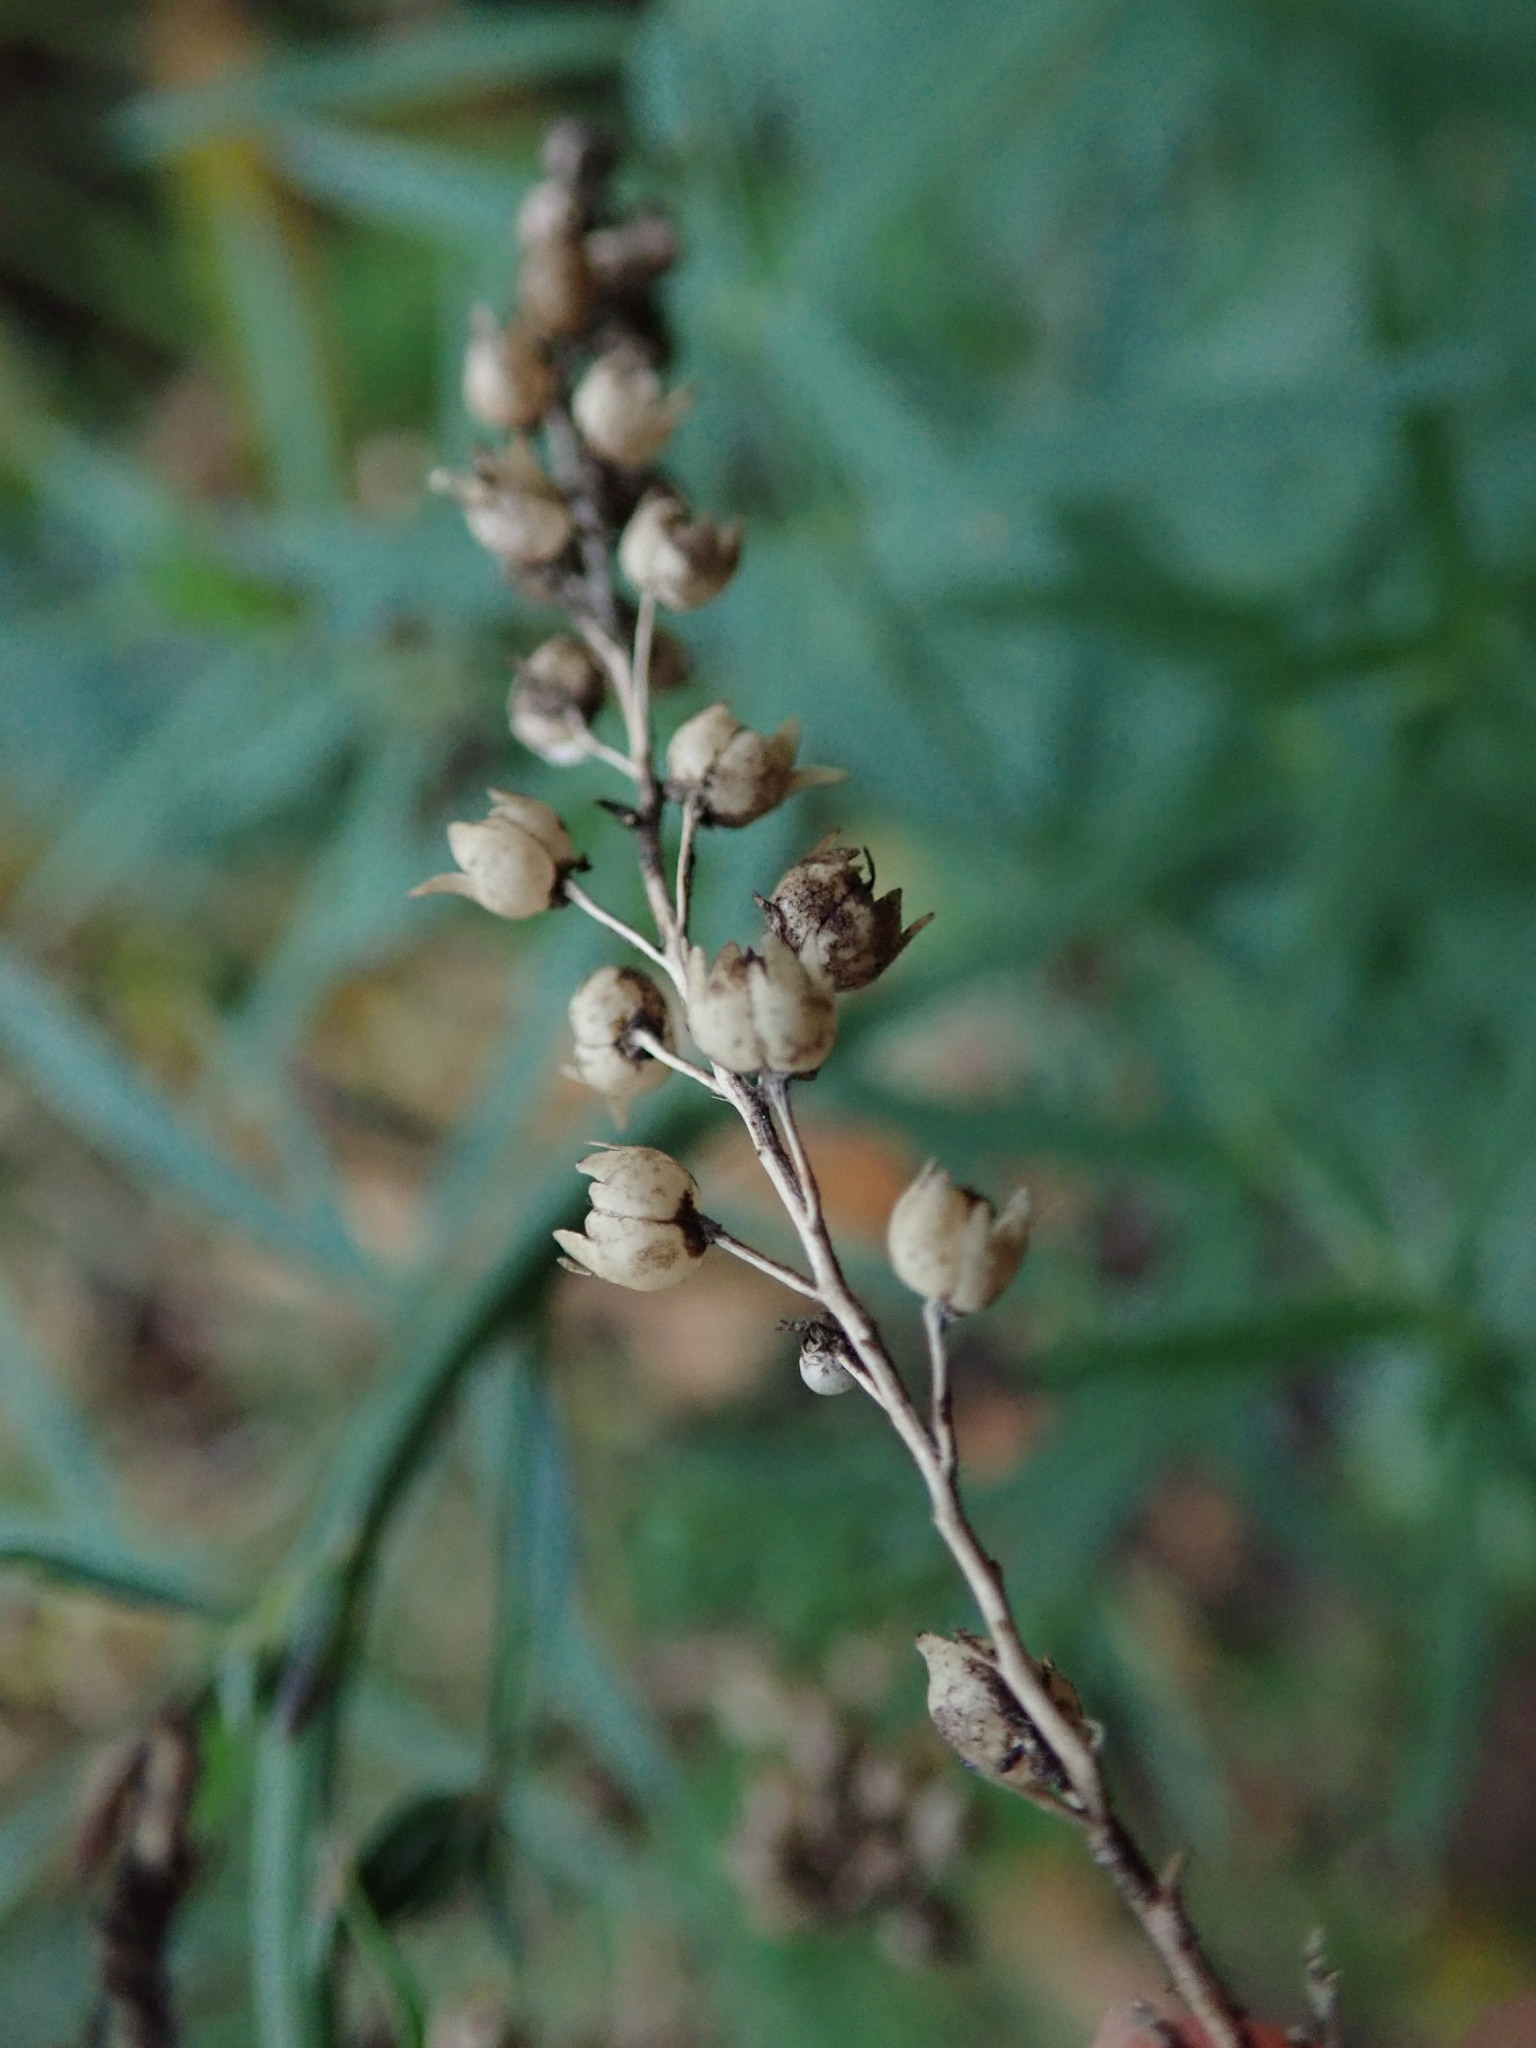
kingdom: Plantae
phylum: Tracheophyta
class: Magnoliopsida
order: Lamiales
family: Plantaginaceae
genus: Linaria
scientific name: Linaria purpurea
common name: Purple toadflax
